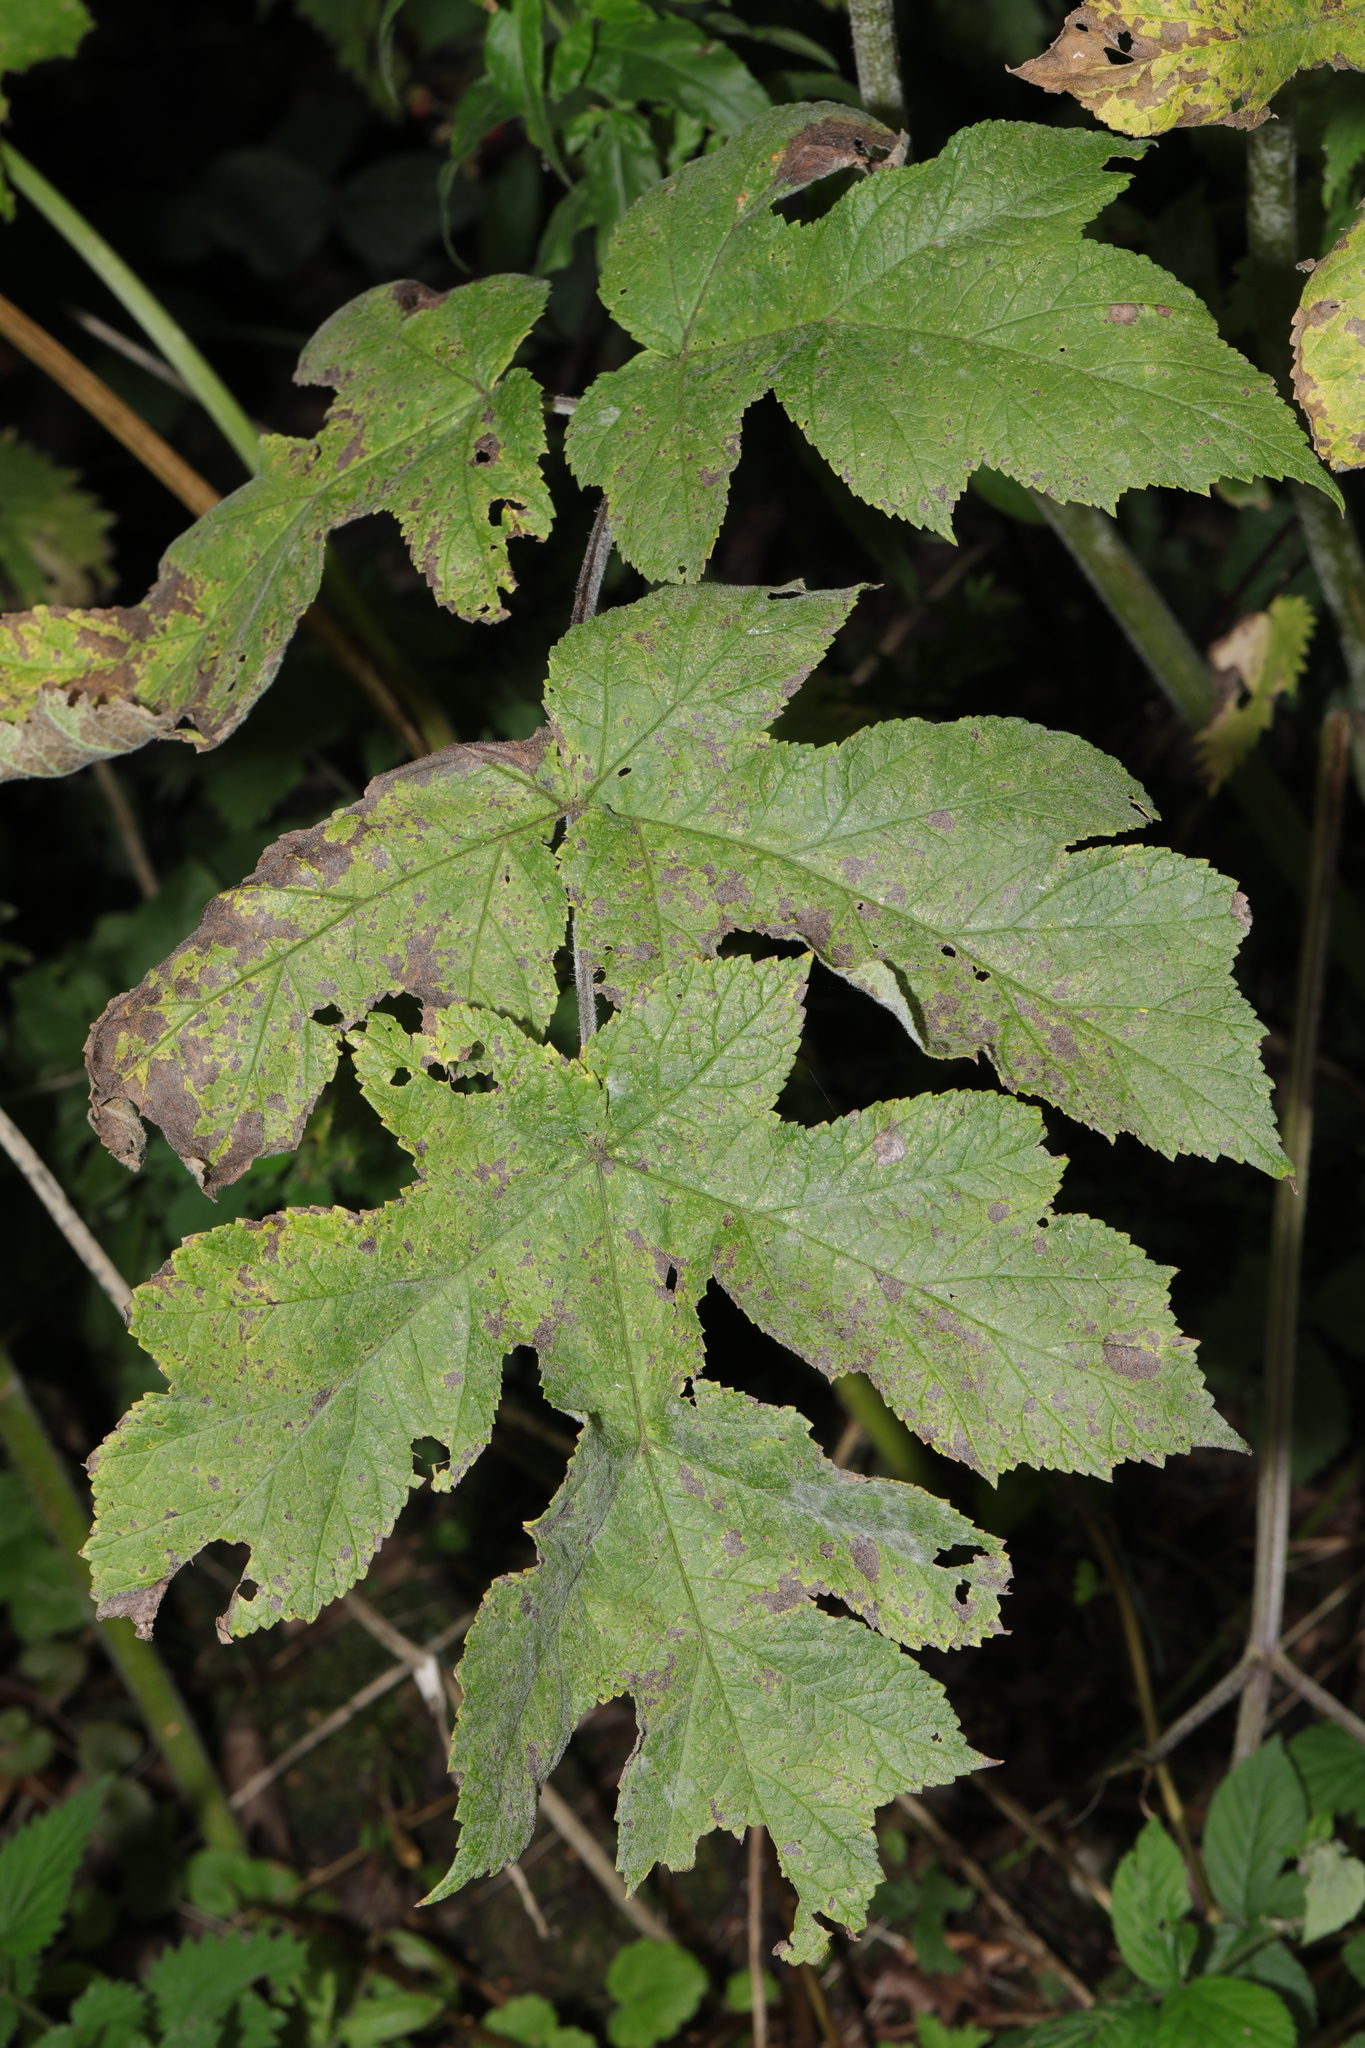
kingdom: Fungi
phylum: Ascomycota
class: Leotiomycetes
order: Helotiales
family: Erysiphaceae
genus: Erysiphe
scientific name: Erysiphe heraclei
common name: Umbellifer mildew
